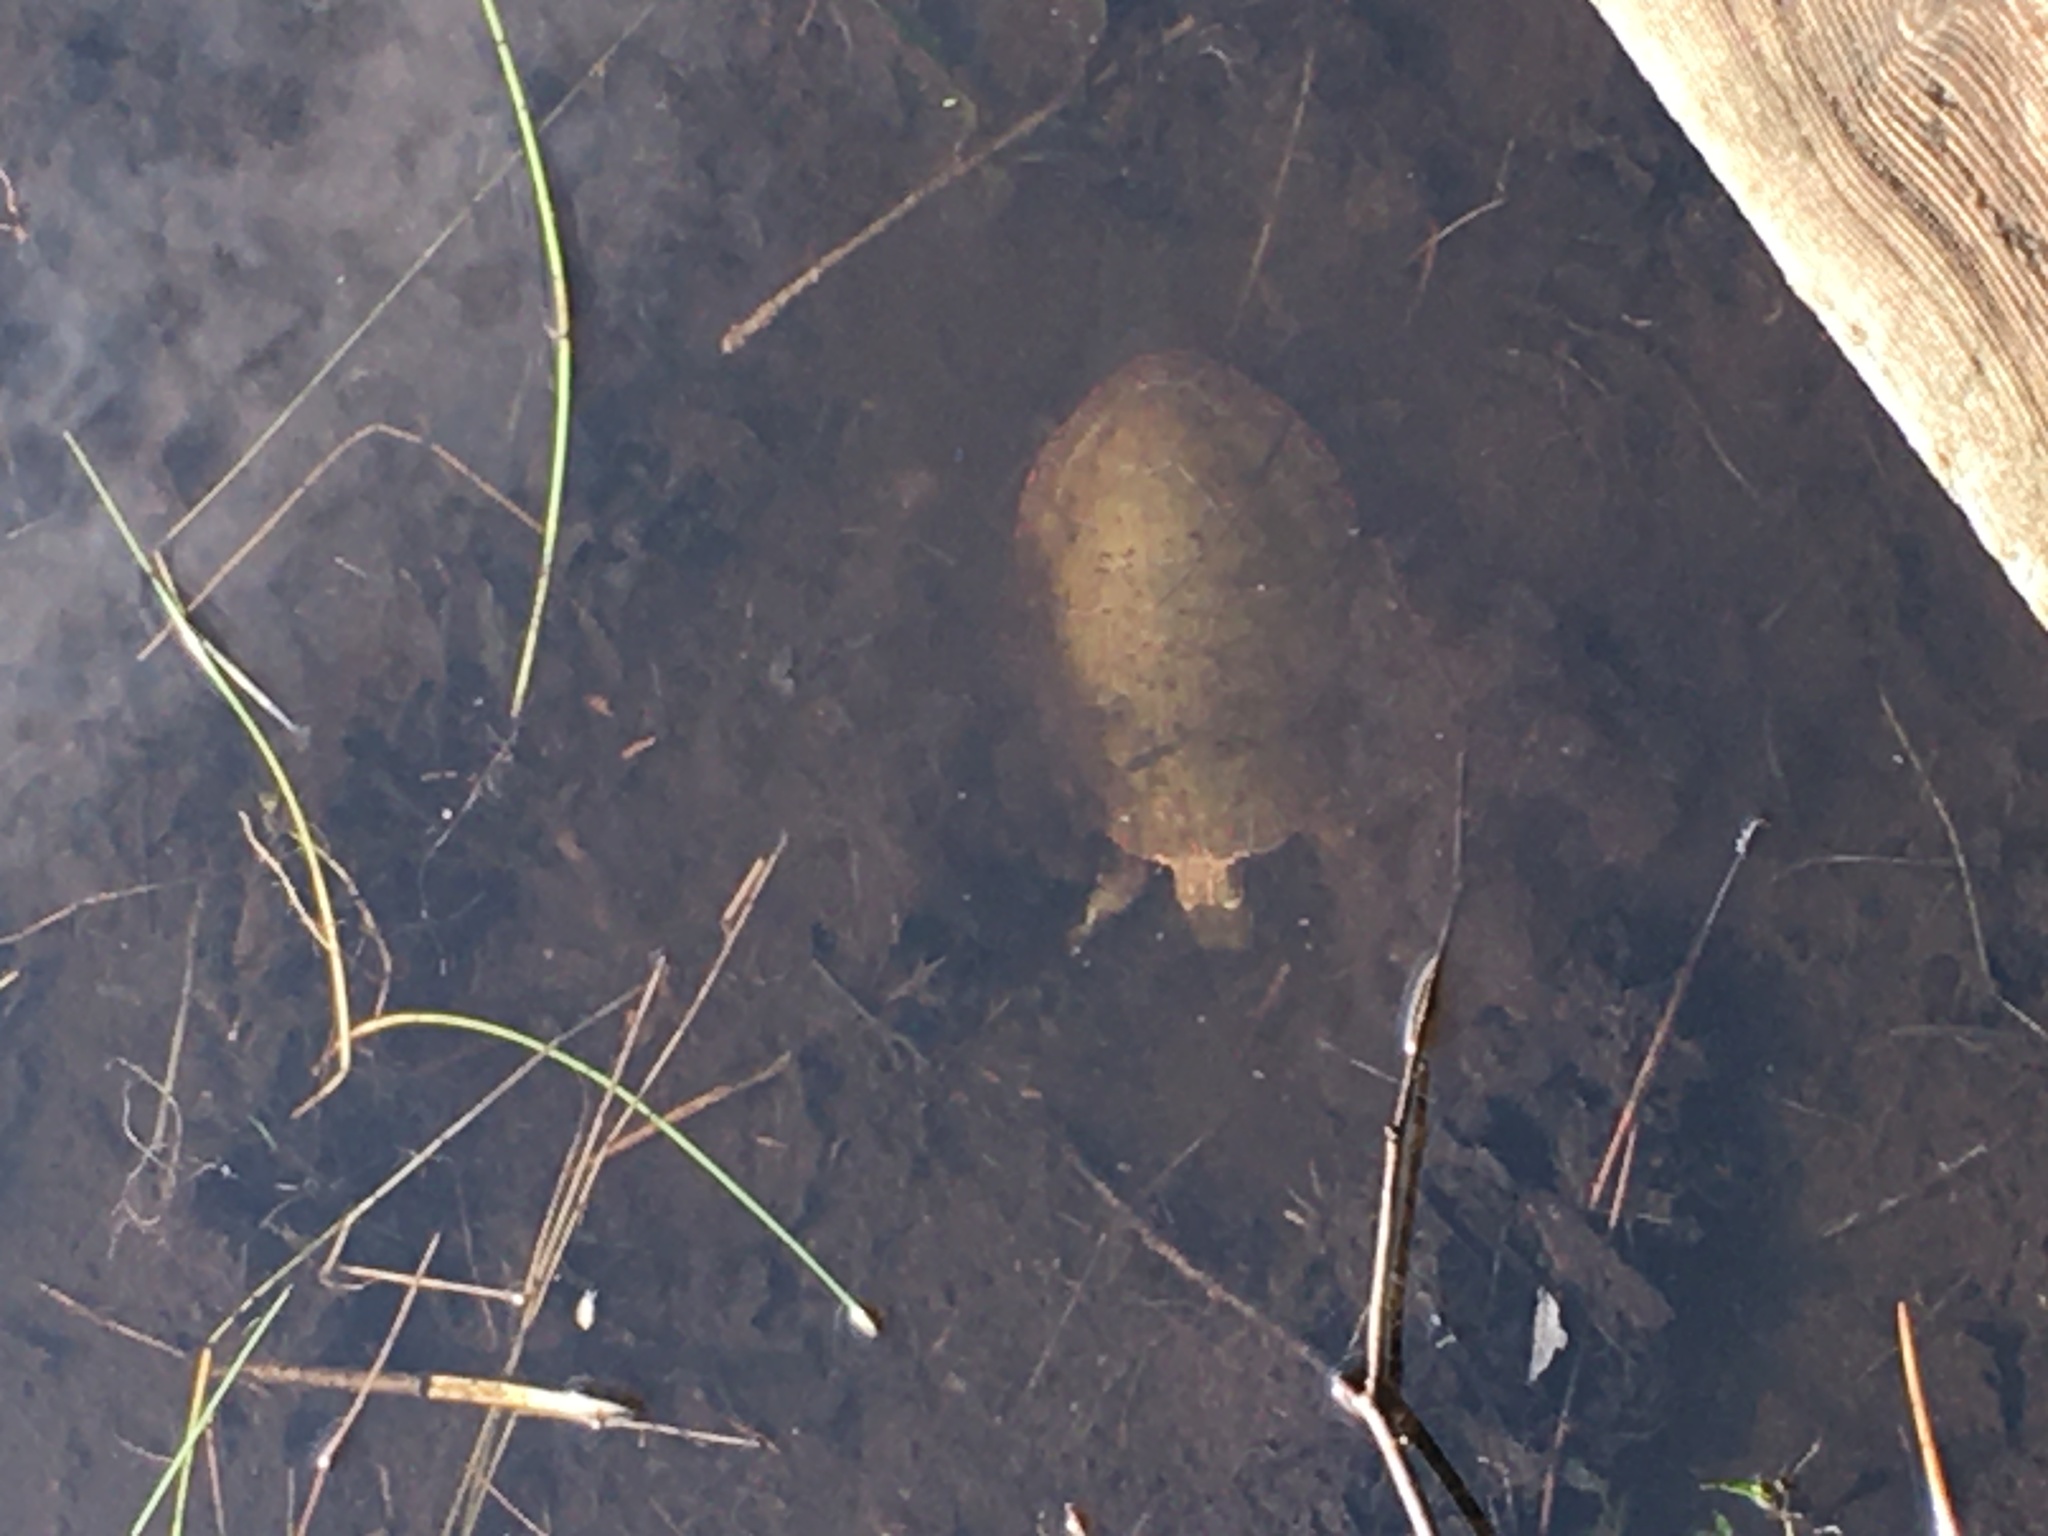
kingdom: Animalia
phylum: Chordata
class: Testudines
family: Emydidae
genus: Chrysemys
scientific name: Chrysemys picta
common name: Painted turtle
